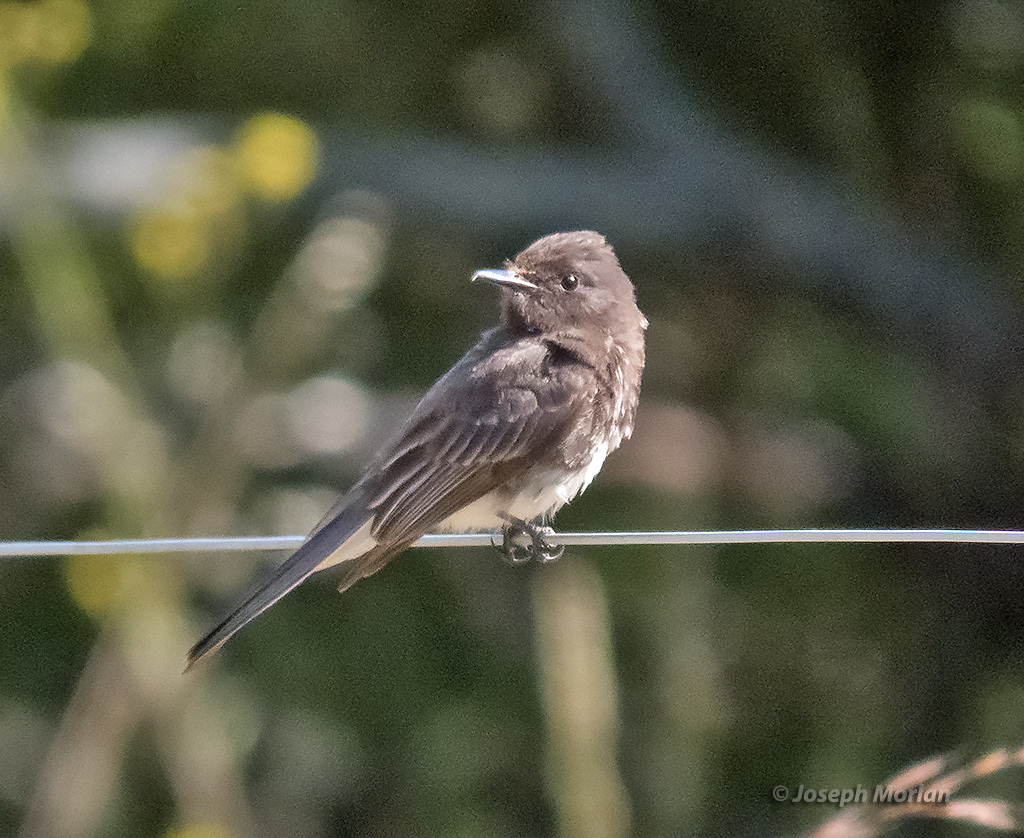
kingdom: Animalia
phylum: Chordata
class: Aves
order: Passeriformes
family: Tyrannidae
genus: Sayornis
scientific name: Sayornis nigricans
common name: Black phoebe
